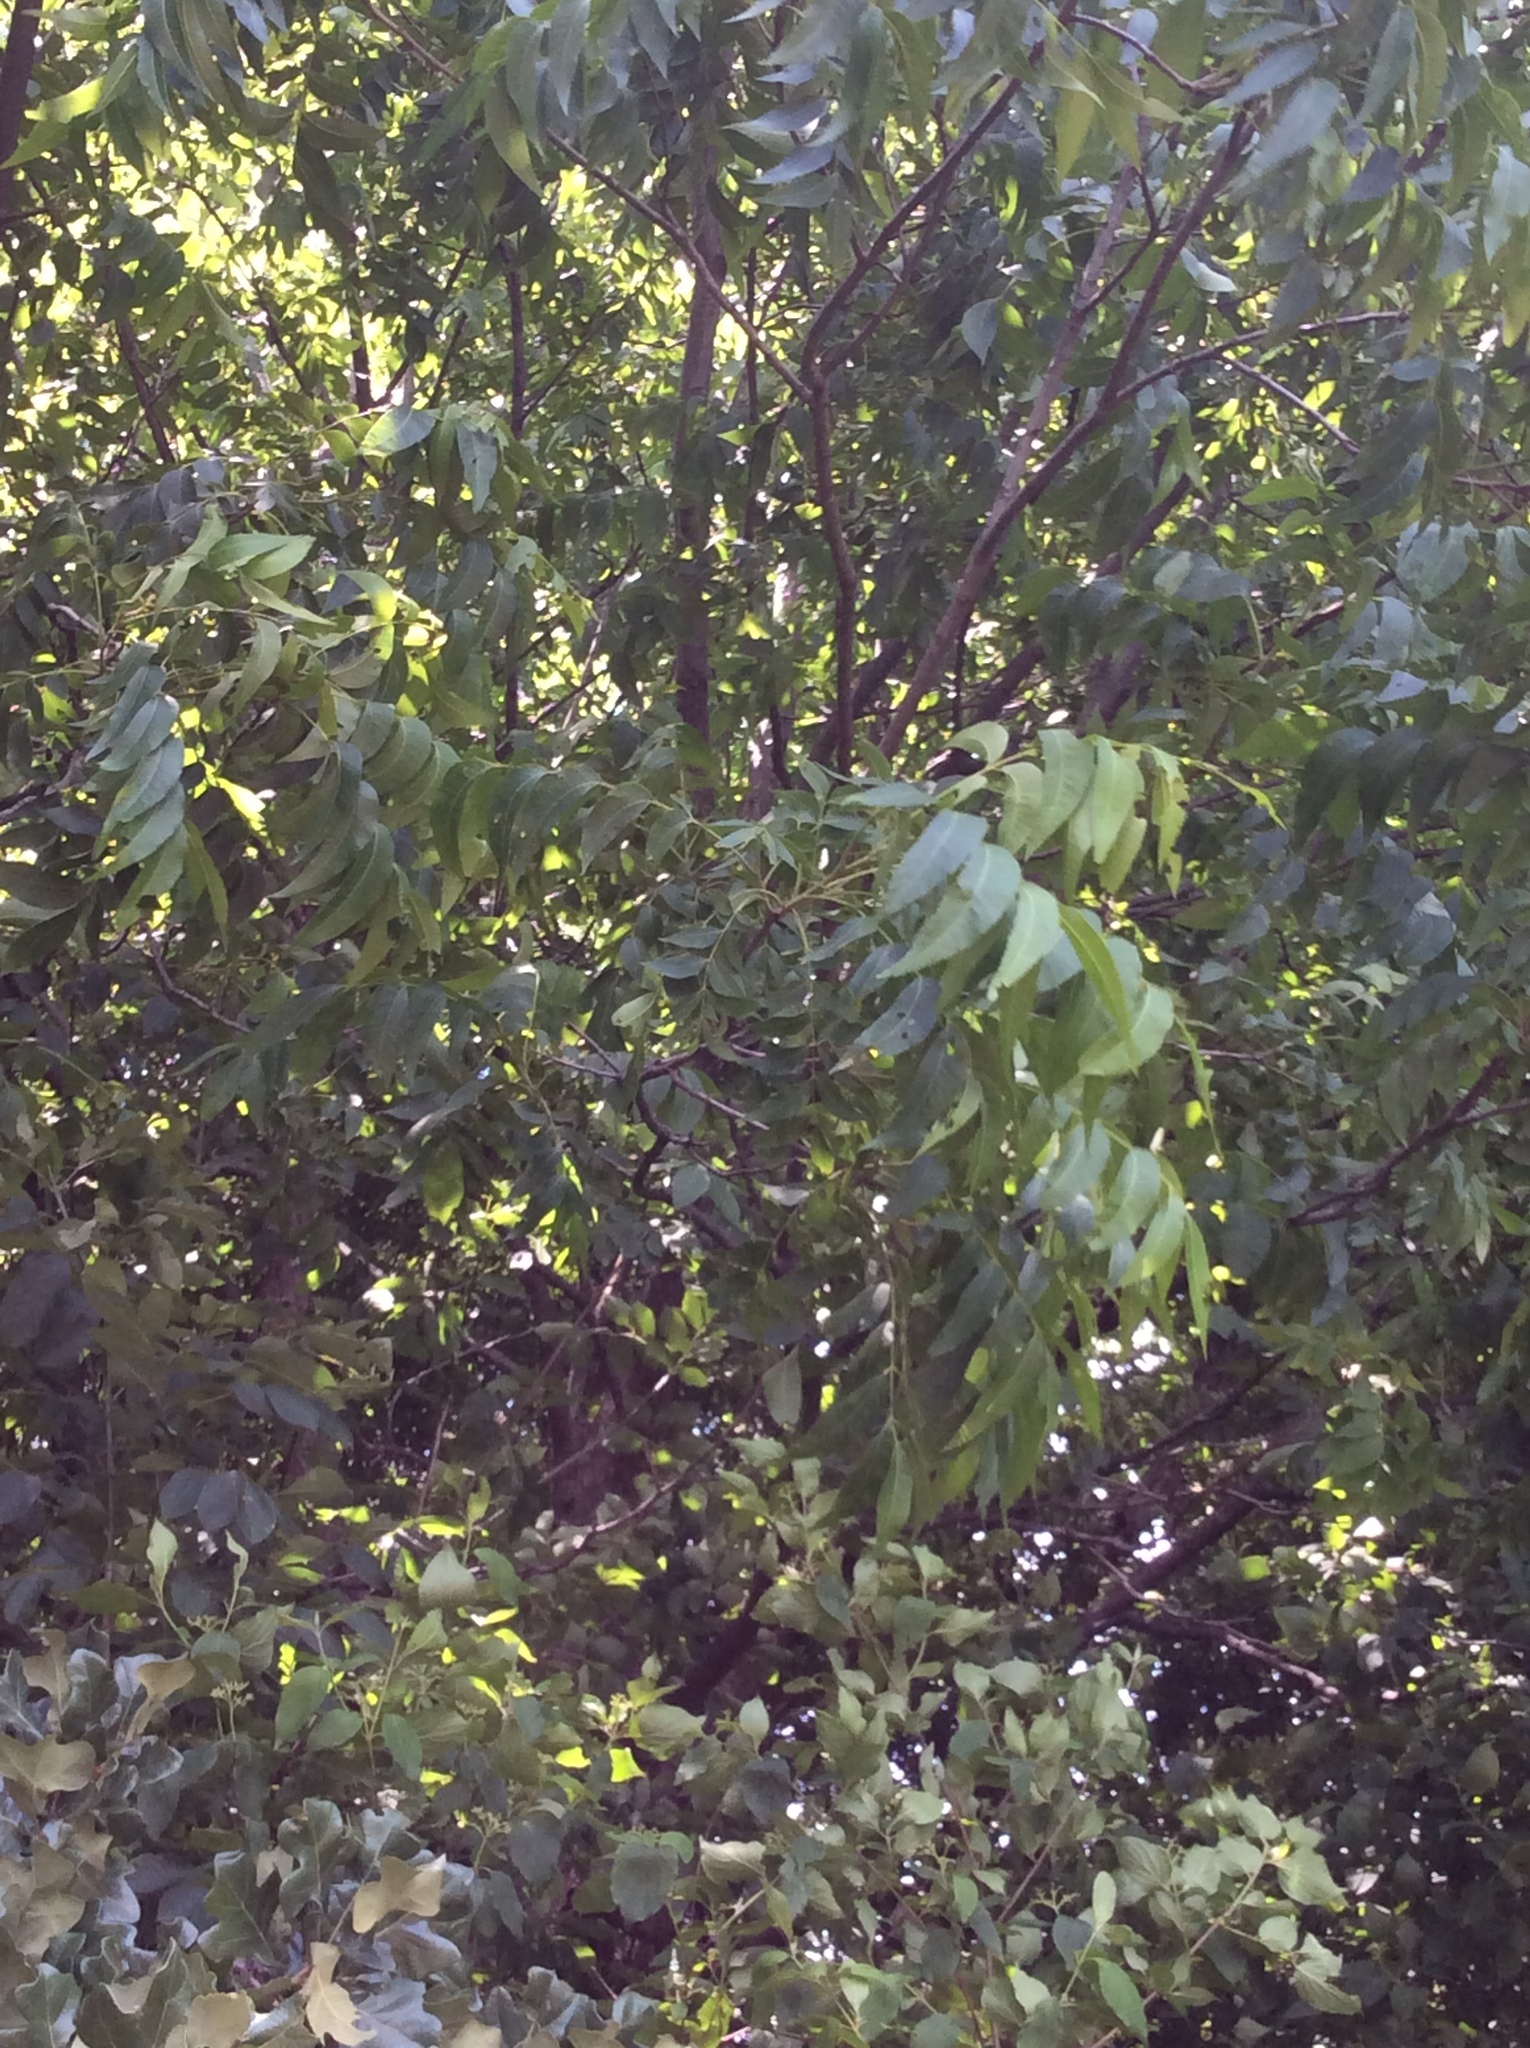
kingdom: Plantae
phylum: Tracheophyta
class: Magnoliopsida
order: Fagales
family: Juglandaceae
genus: Carya
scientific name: Carya illinoinensis
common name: Pecan
